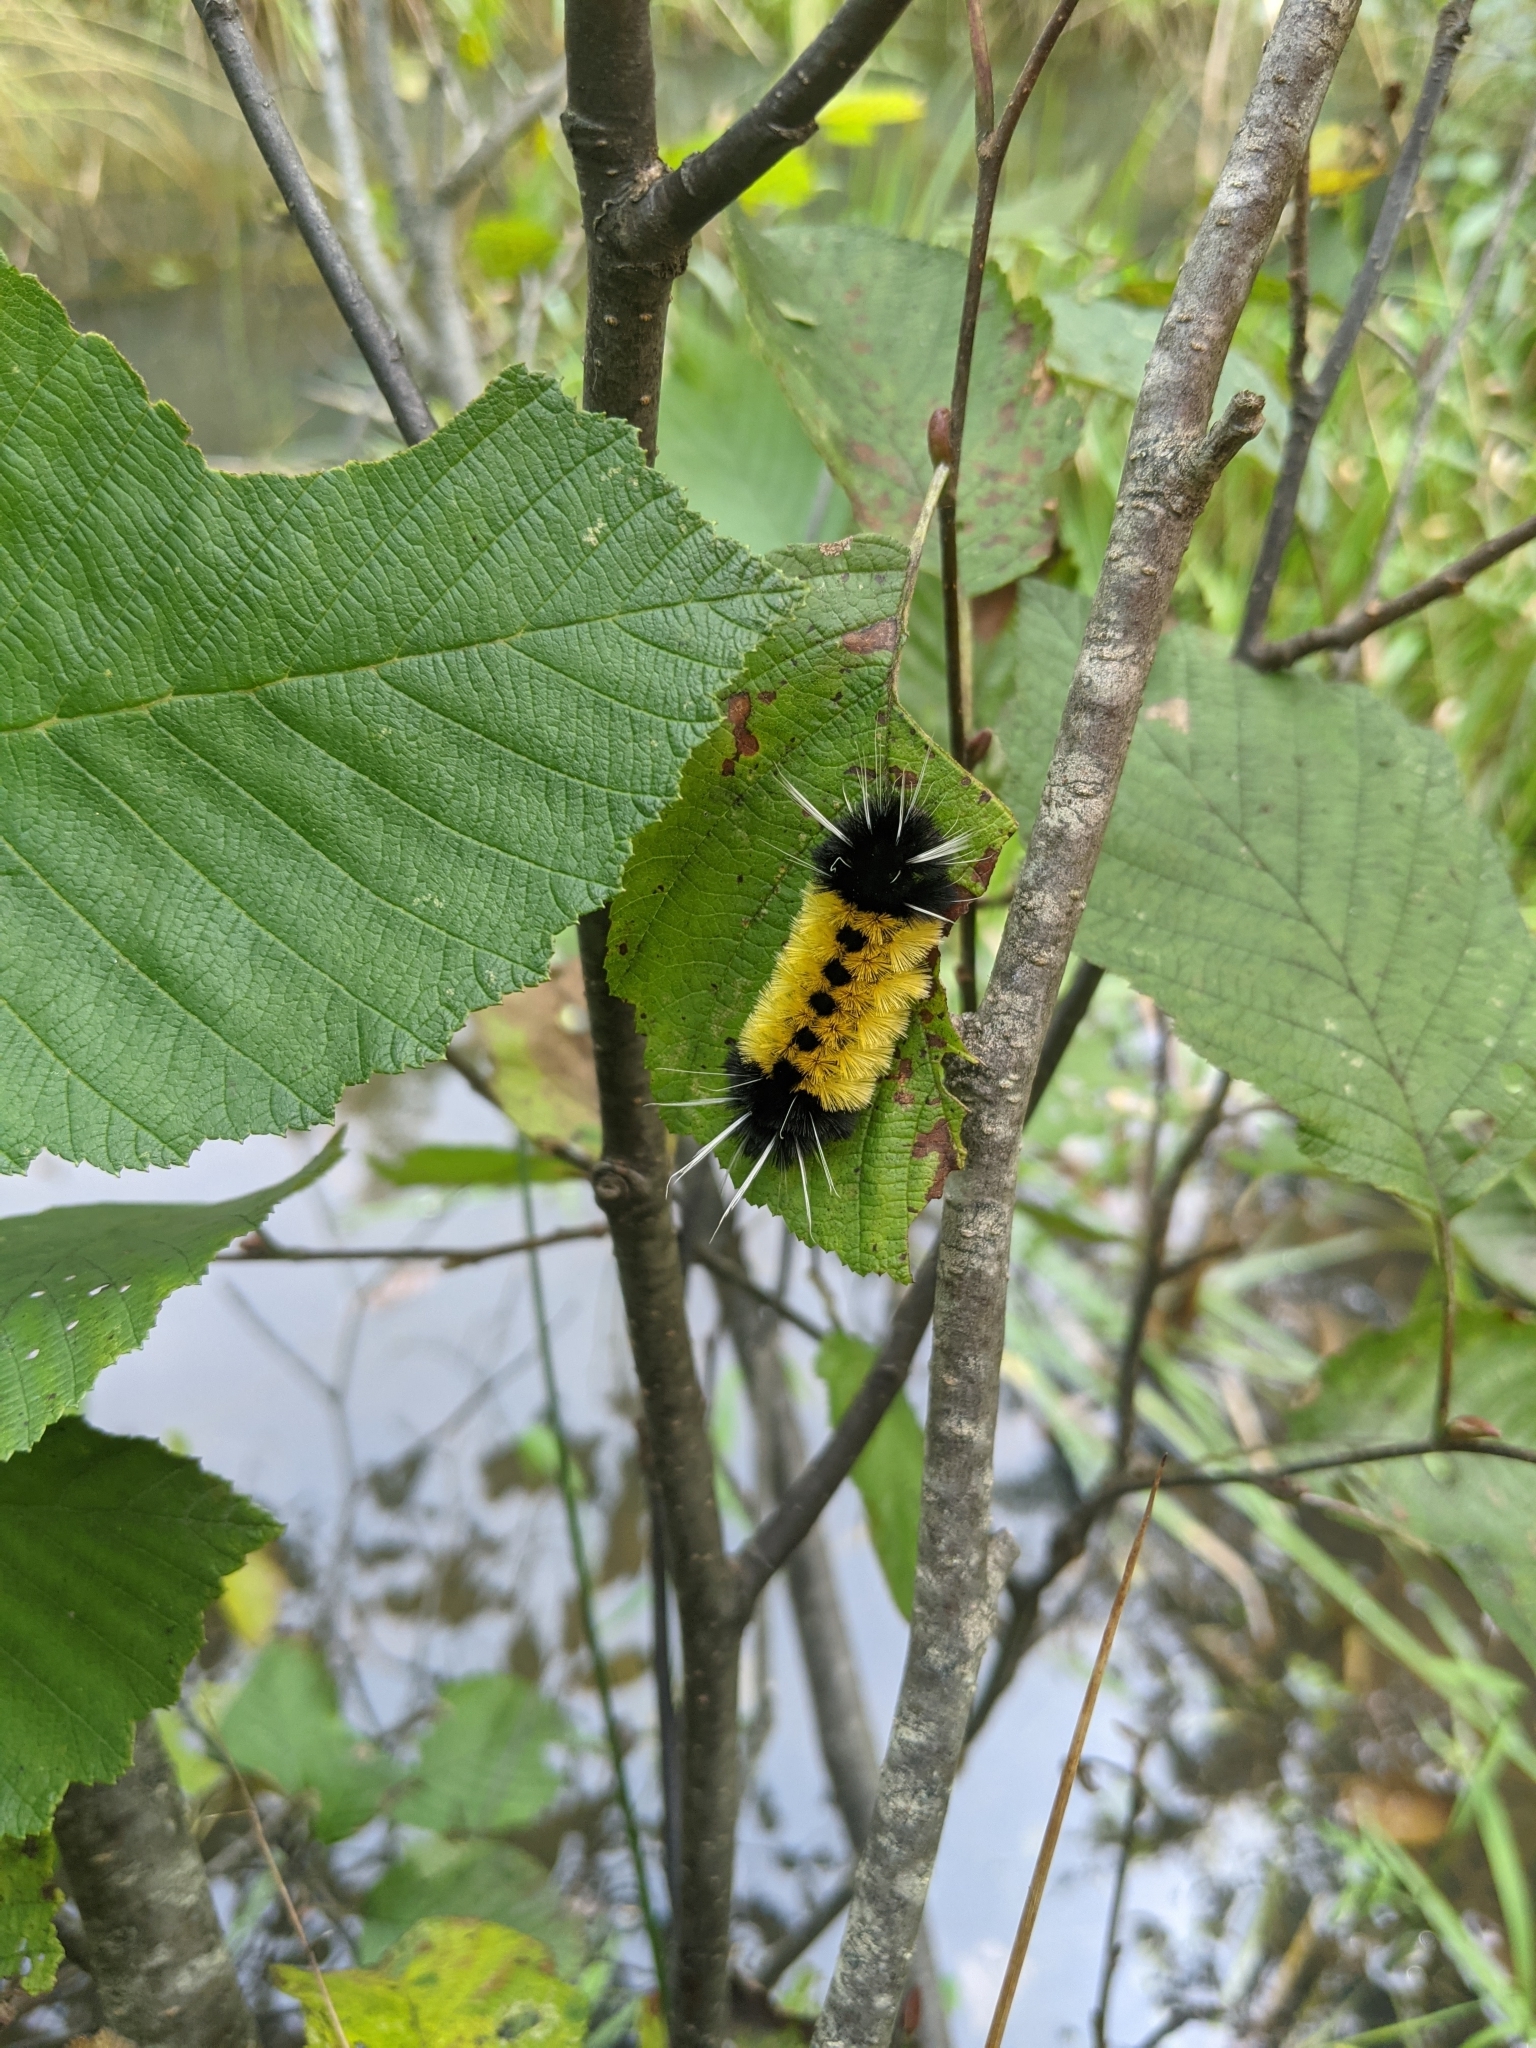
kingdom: Animalia
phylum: Arthropoda
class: Insecta
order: Lepidoptera
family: Erebidae
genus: Lophocampa
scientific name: Lophocampa maculata
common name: Spotted tussock moth
